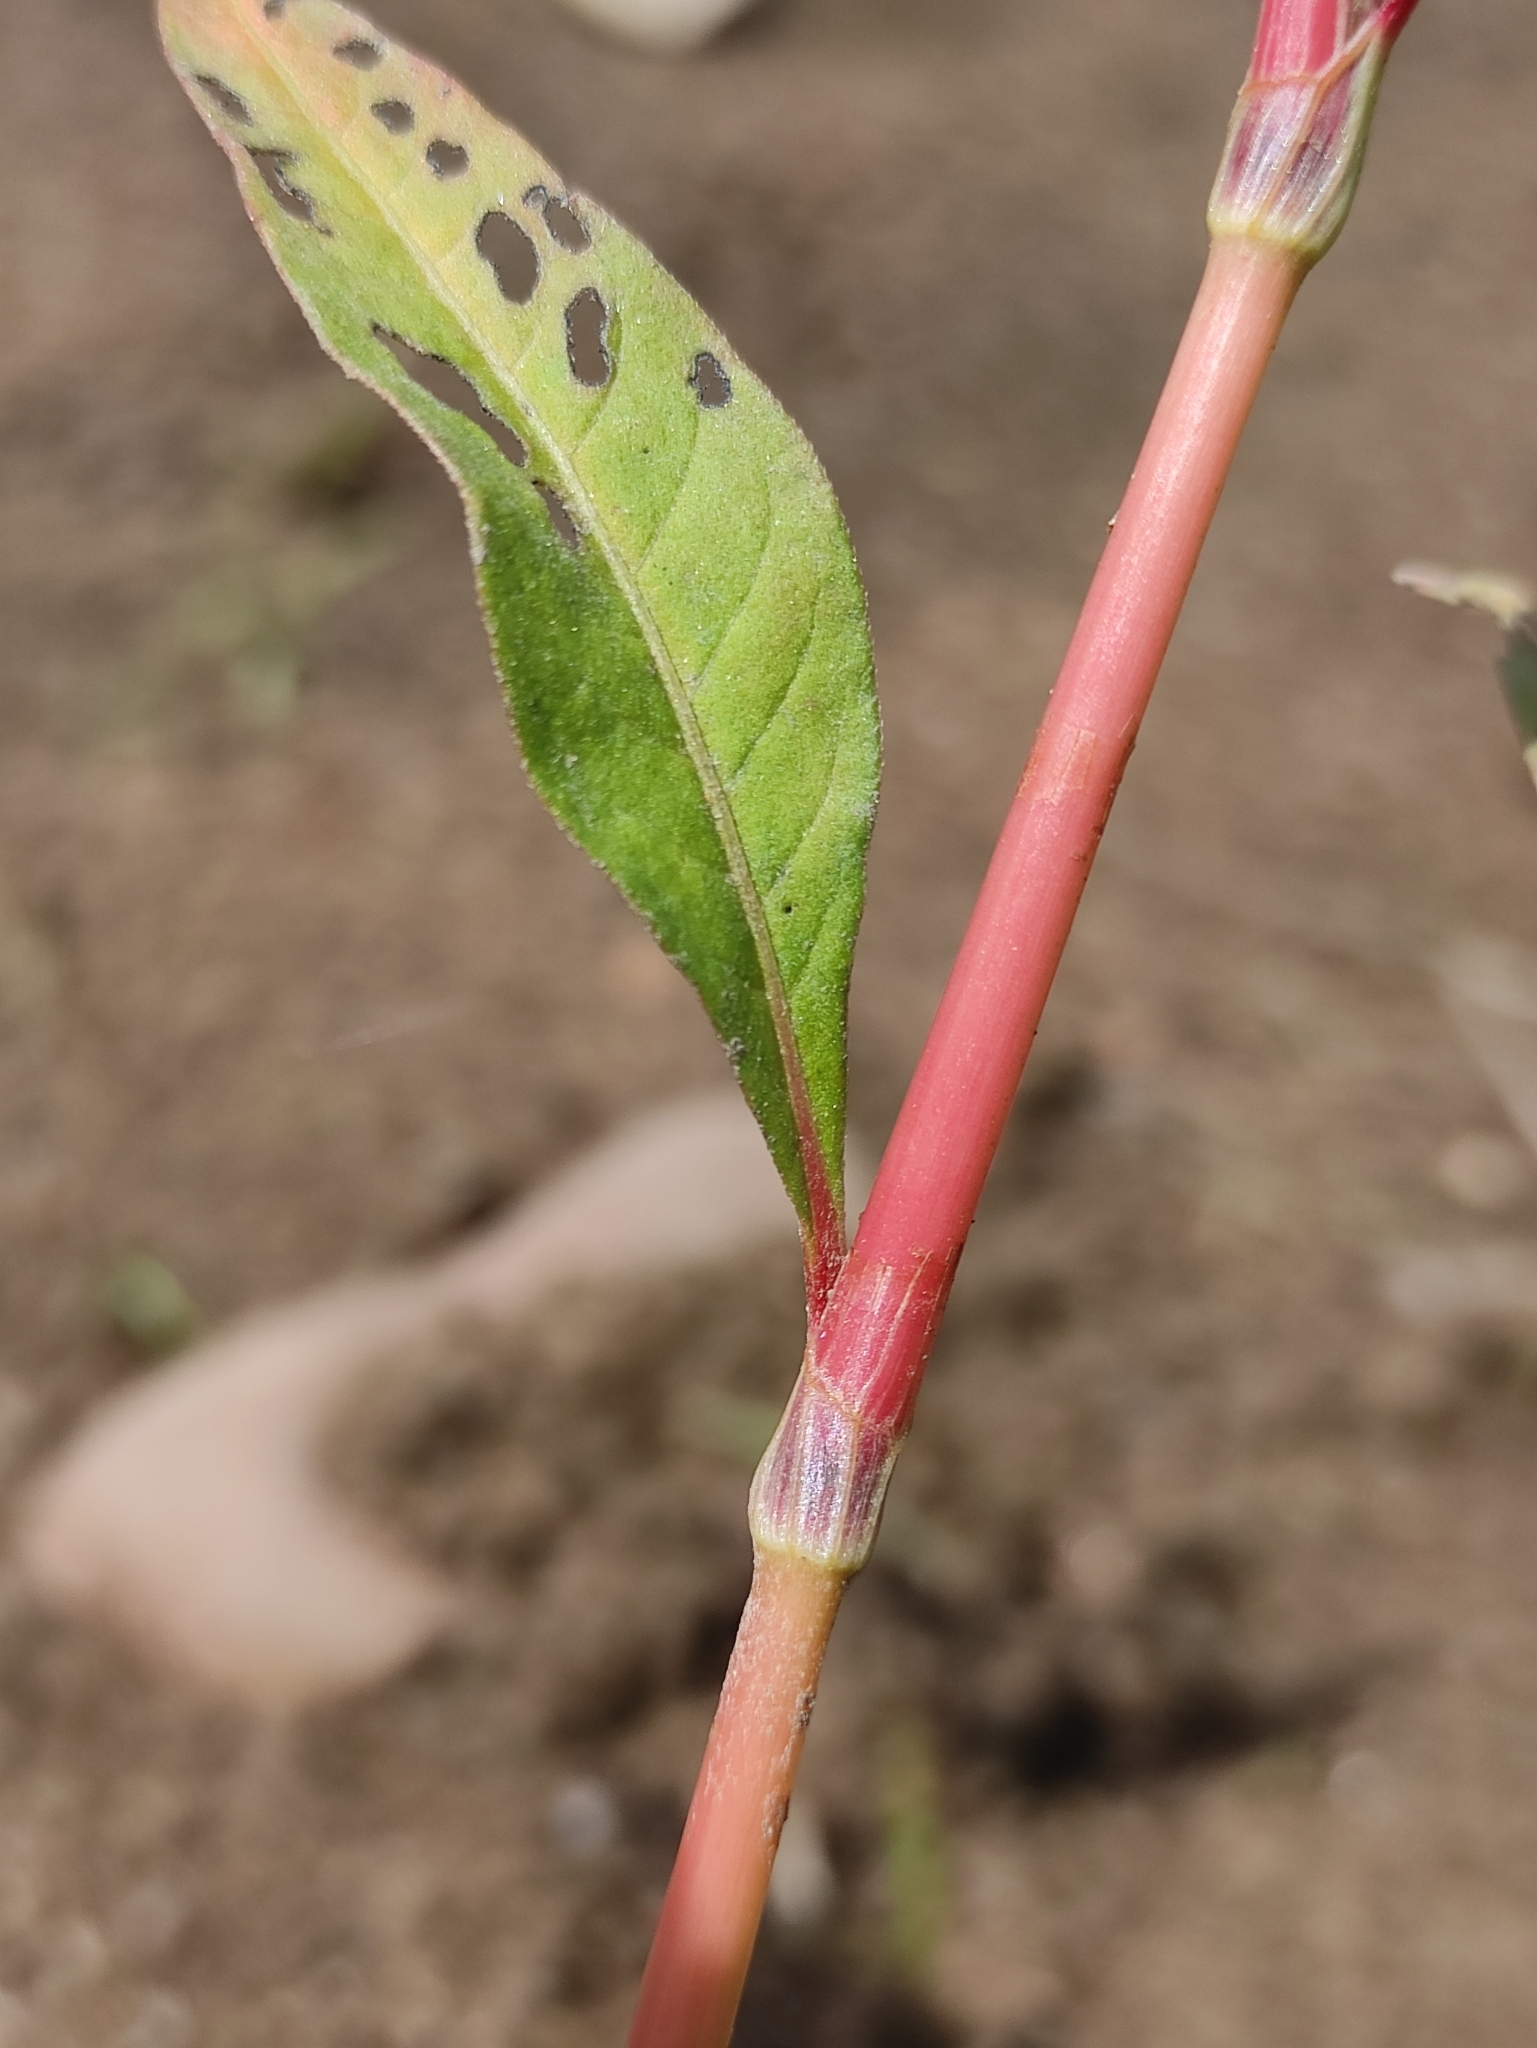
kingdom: Plantae
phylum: Tracheophyta
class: Magnoliopsida
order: Caryophyllales
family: Polygonaceae
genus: Persicaria
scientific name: Persicaria lapathifolia
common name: Curlytop knotweed
